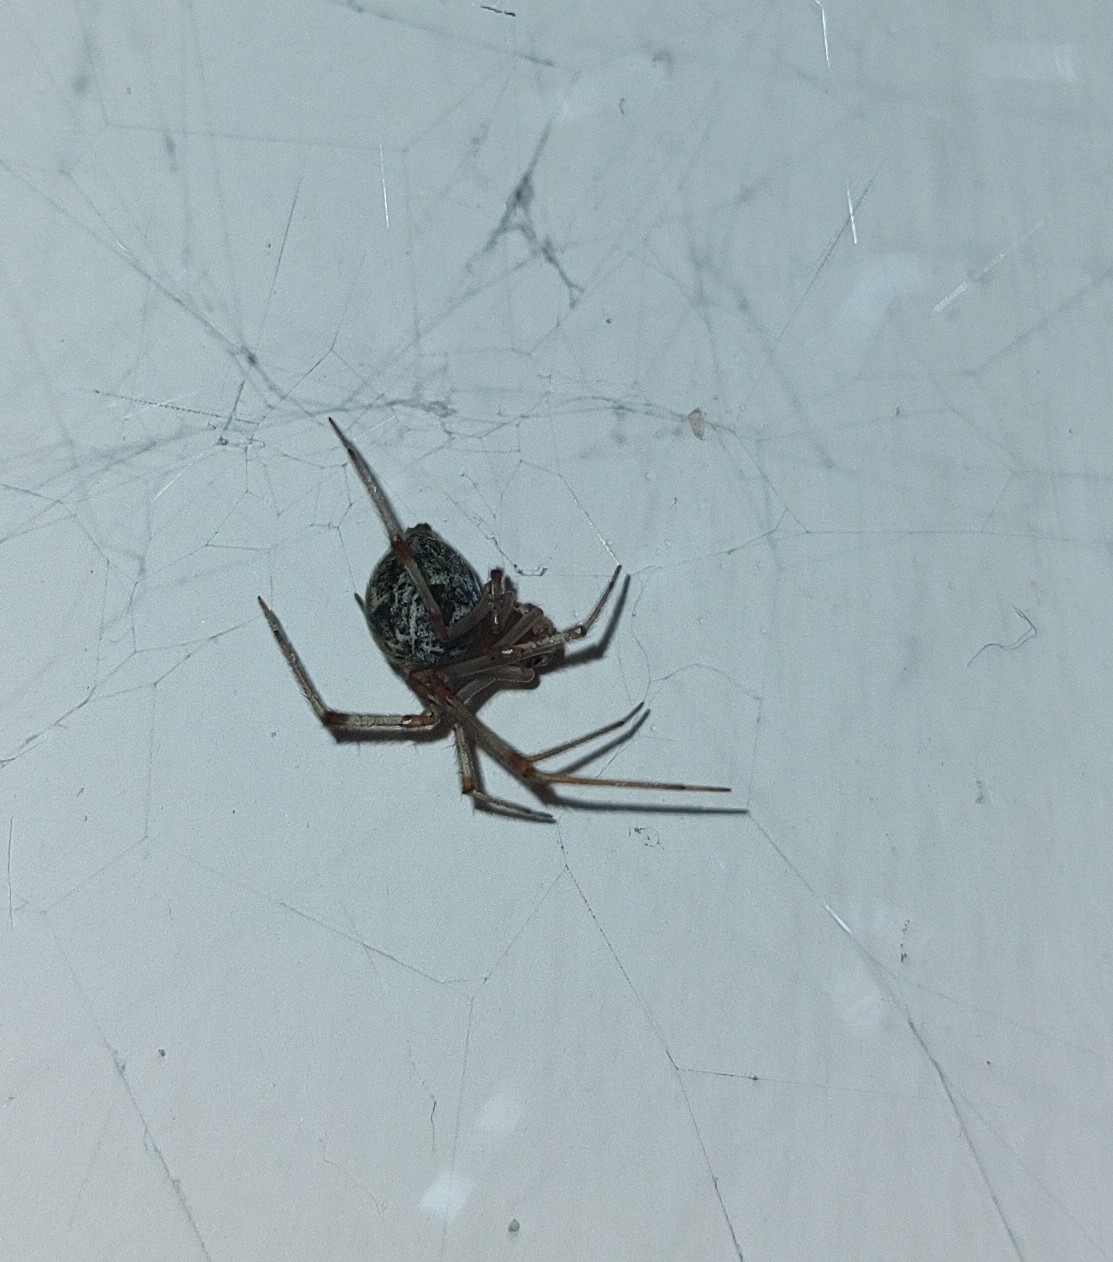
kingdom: Animalia
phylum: Arthropoda
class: Arachnida
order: Araneae
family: Theridiidae
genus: Parasteatoda
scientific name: Parasteatoda tepidariorum
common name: Common house spider
